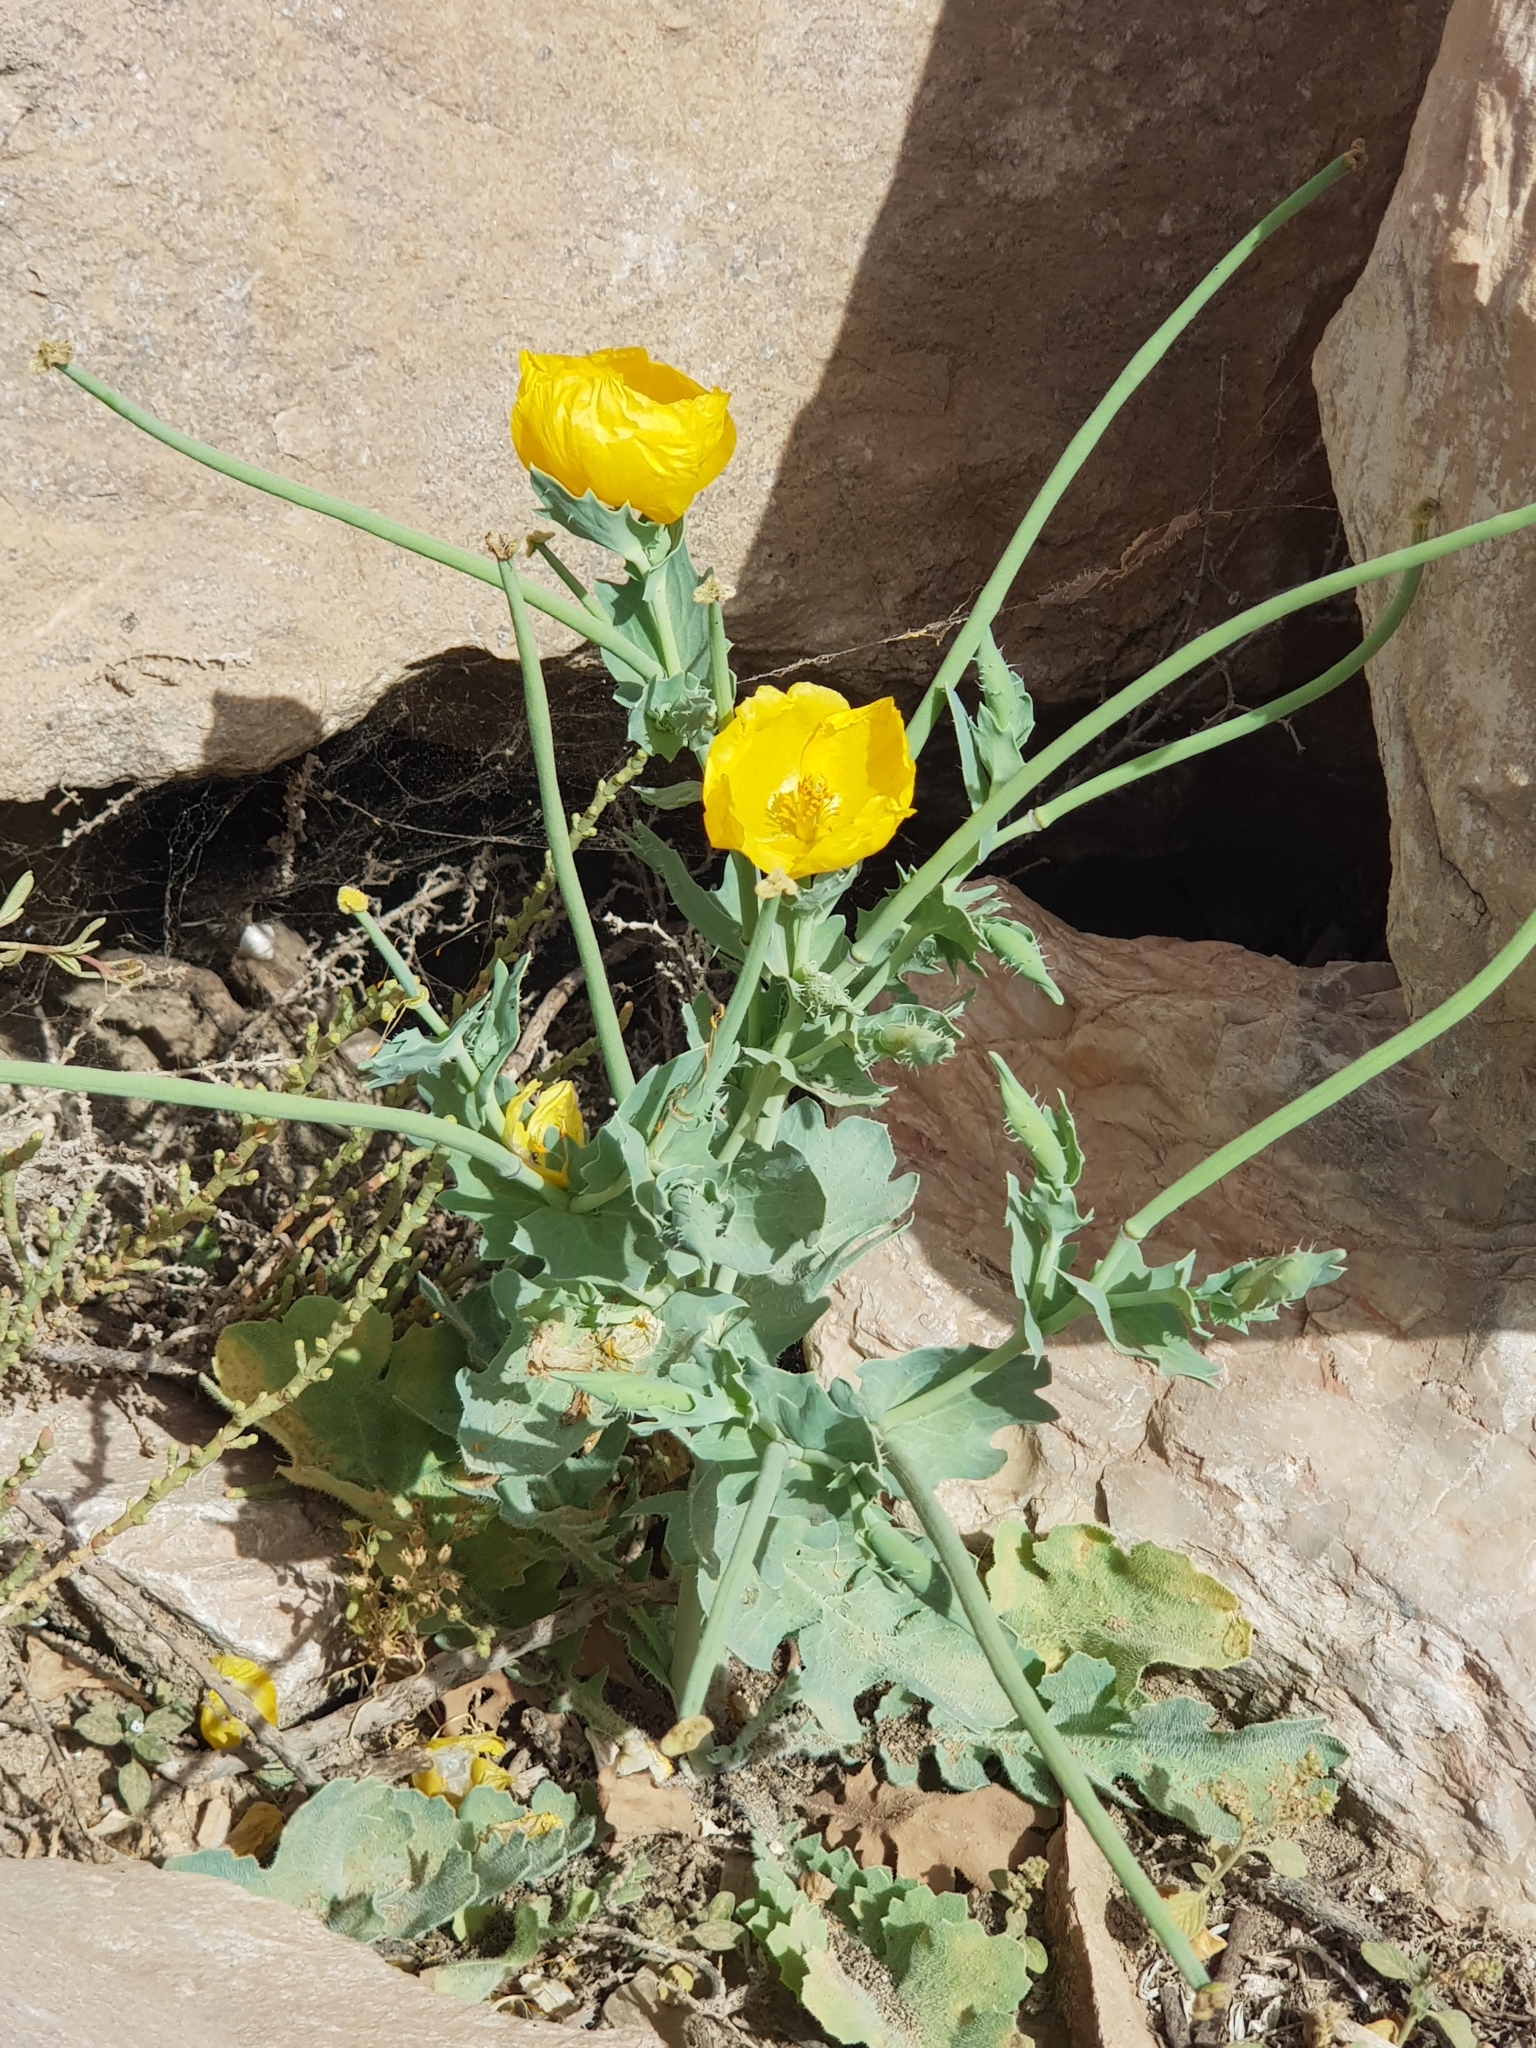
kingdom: Plantae
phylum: Tracheophyta
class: Magnoliopsida
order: Ranunculales
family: Papaveraceae
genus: Glaucium
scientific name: Glaucium flavum
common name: Yellow horned-poppy
